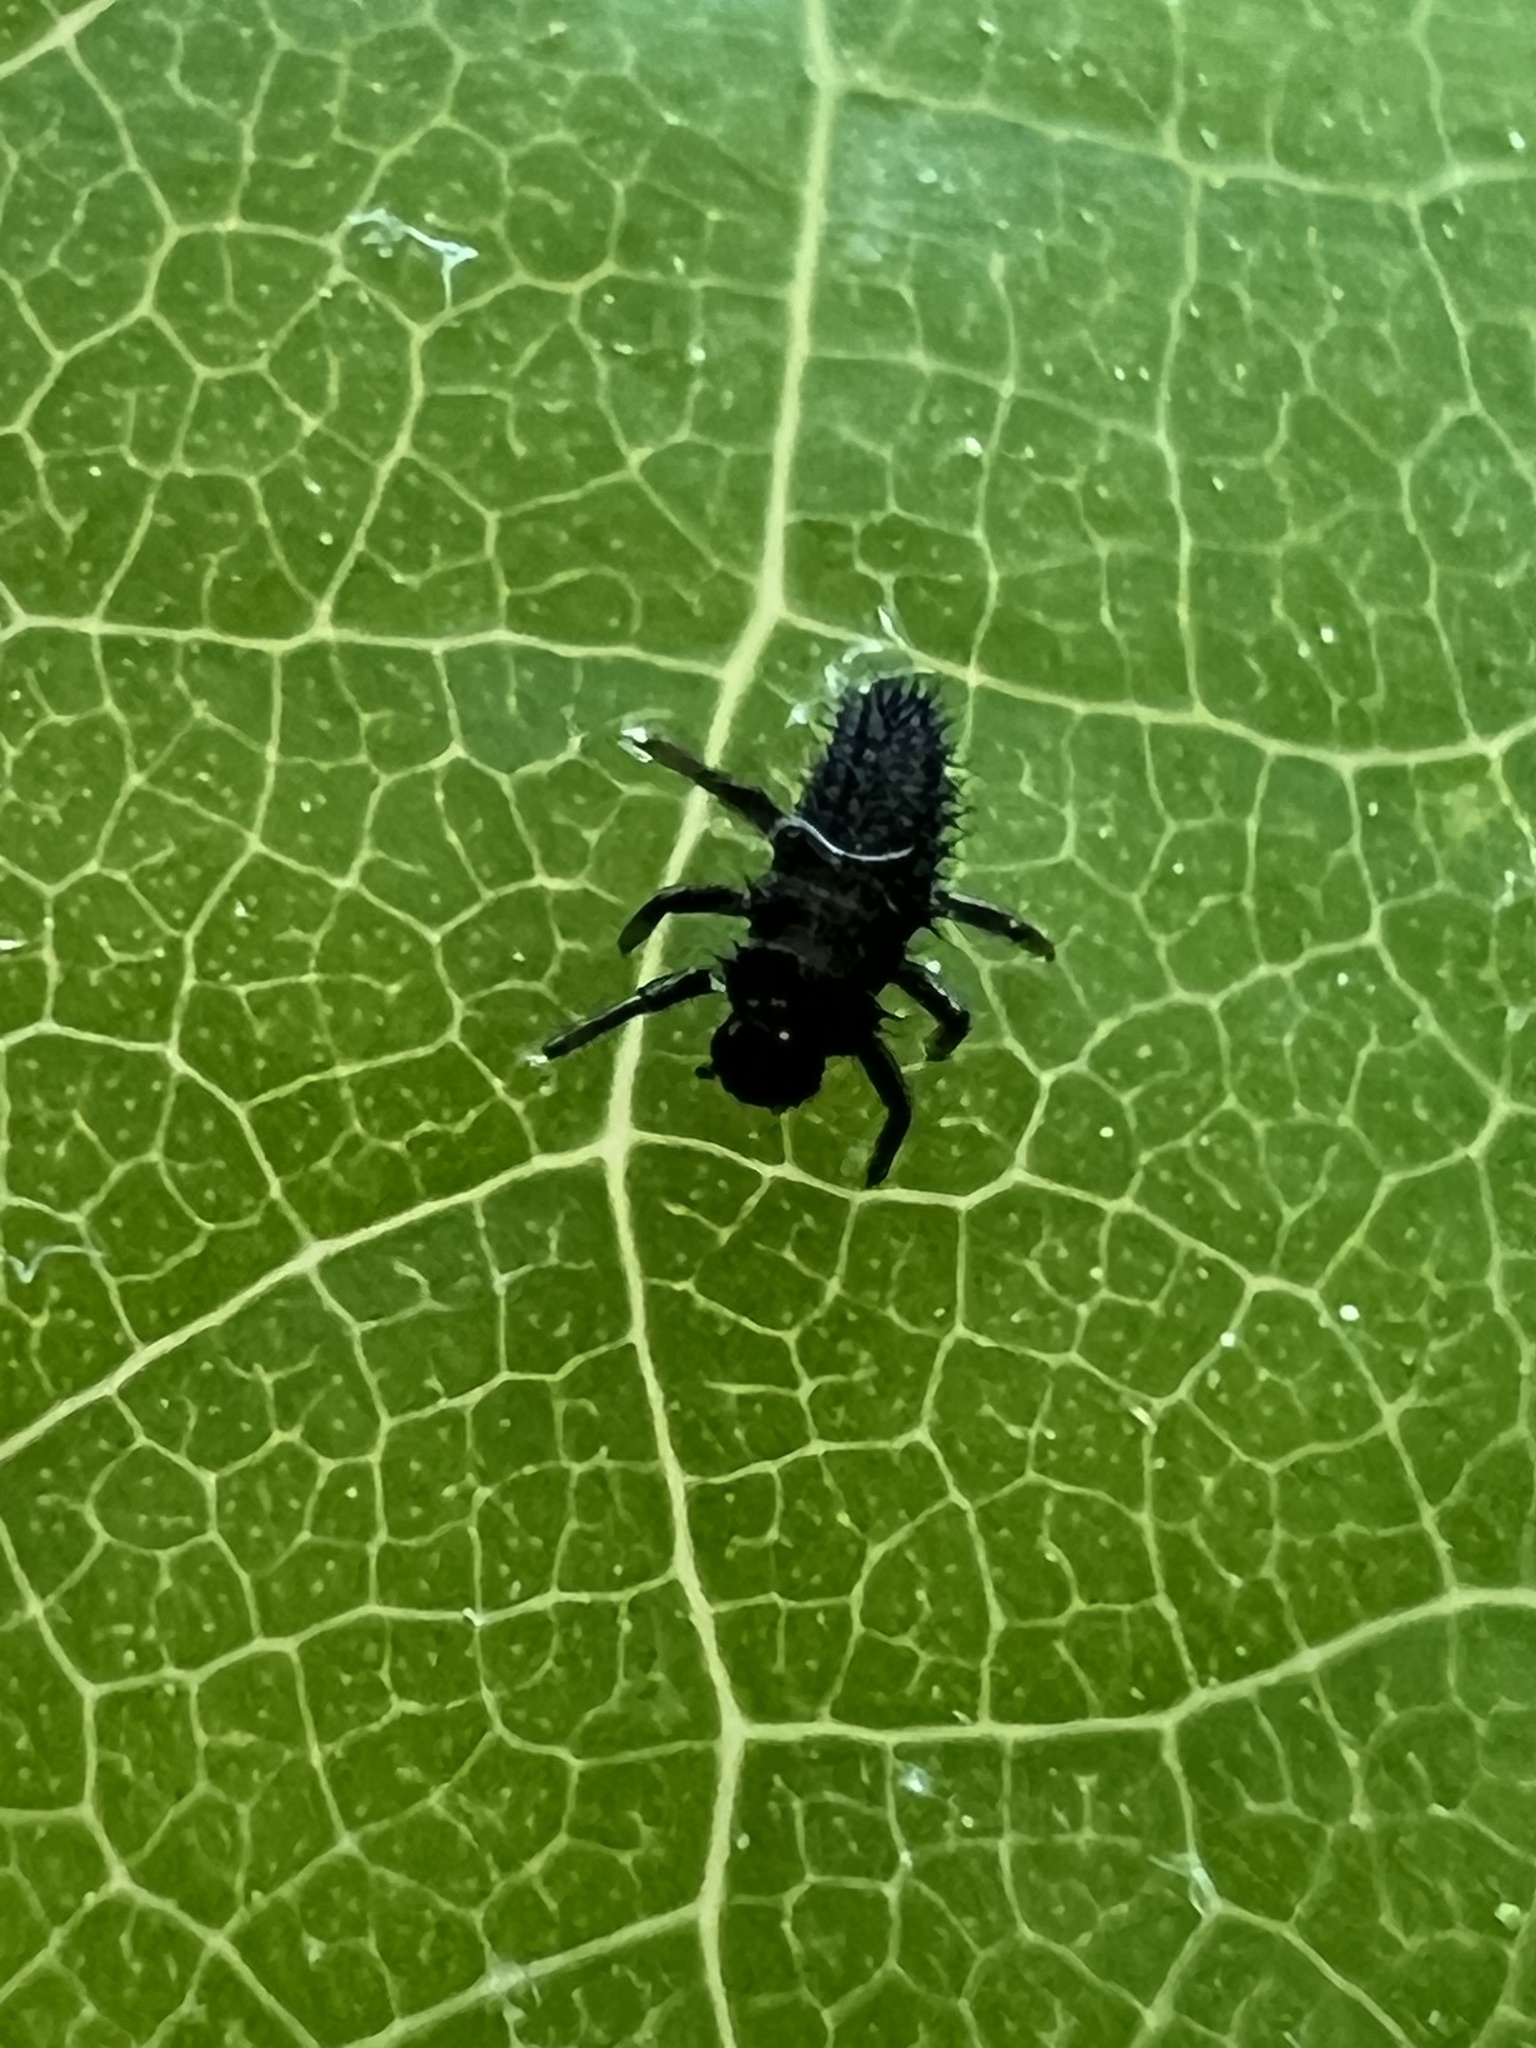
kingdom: Animalia
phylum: Arthropoda
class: Insecta
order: Coleoptera
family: Coccinellidae
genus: Harmonia
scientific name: Harmonia axyridis
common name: Harlequin ladybird
